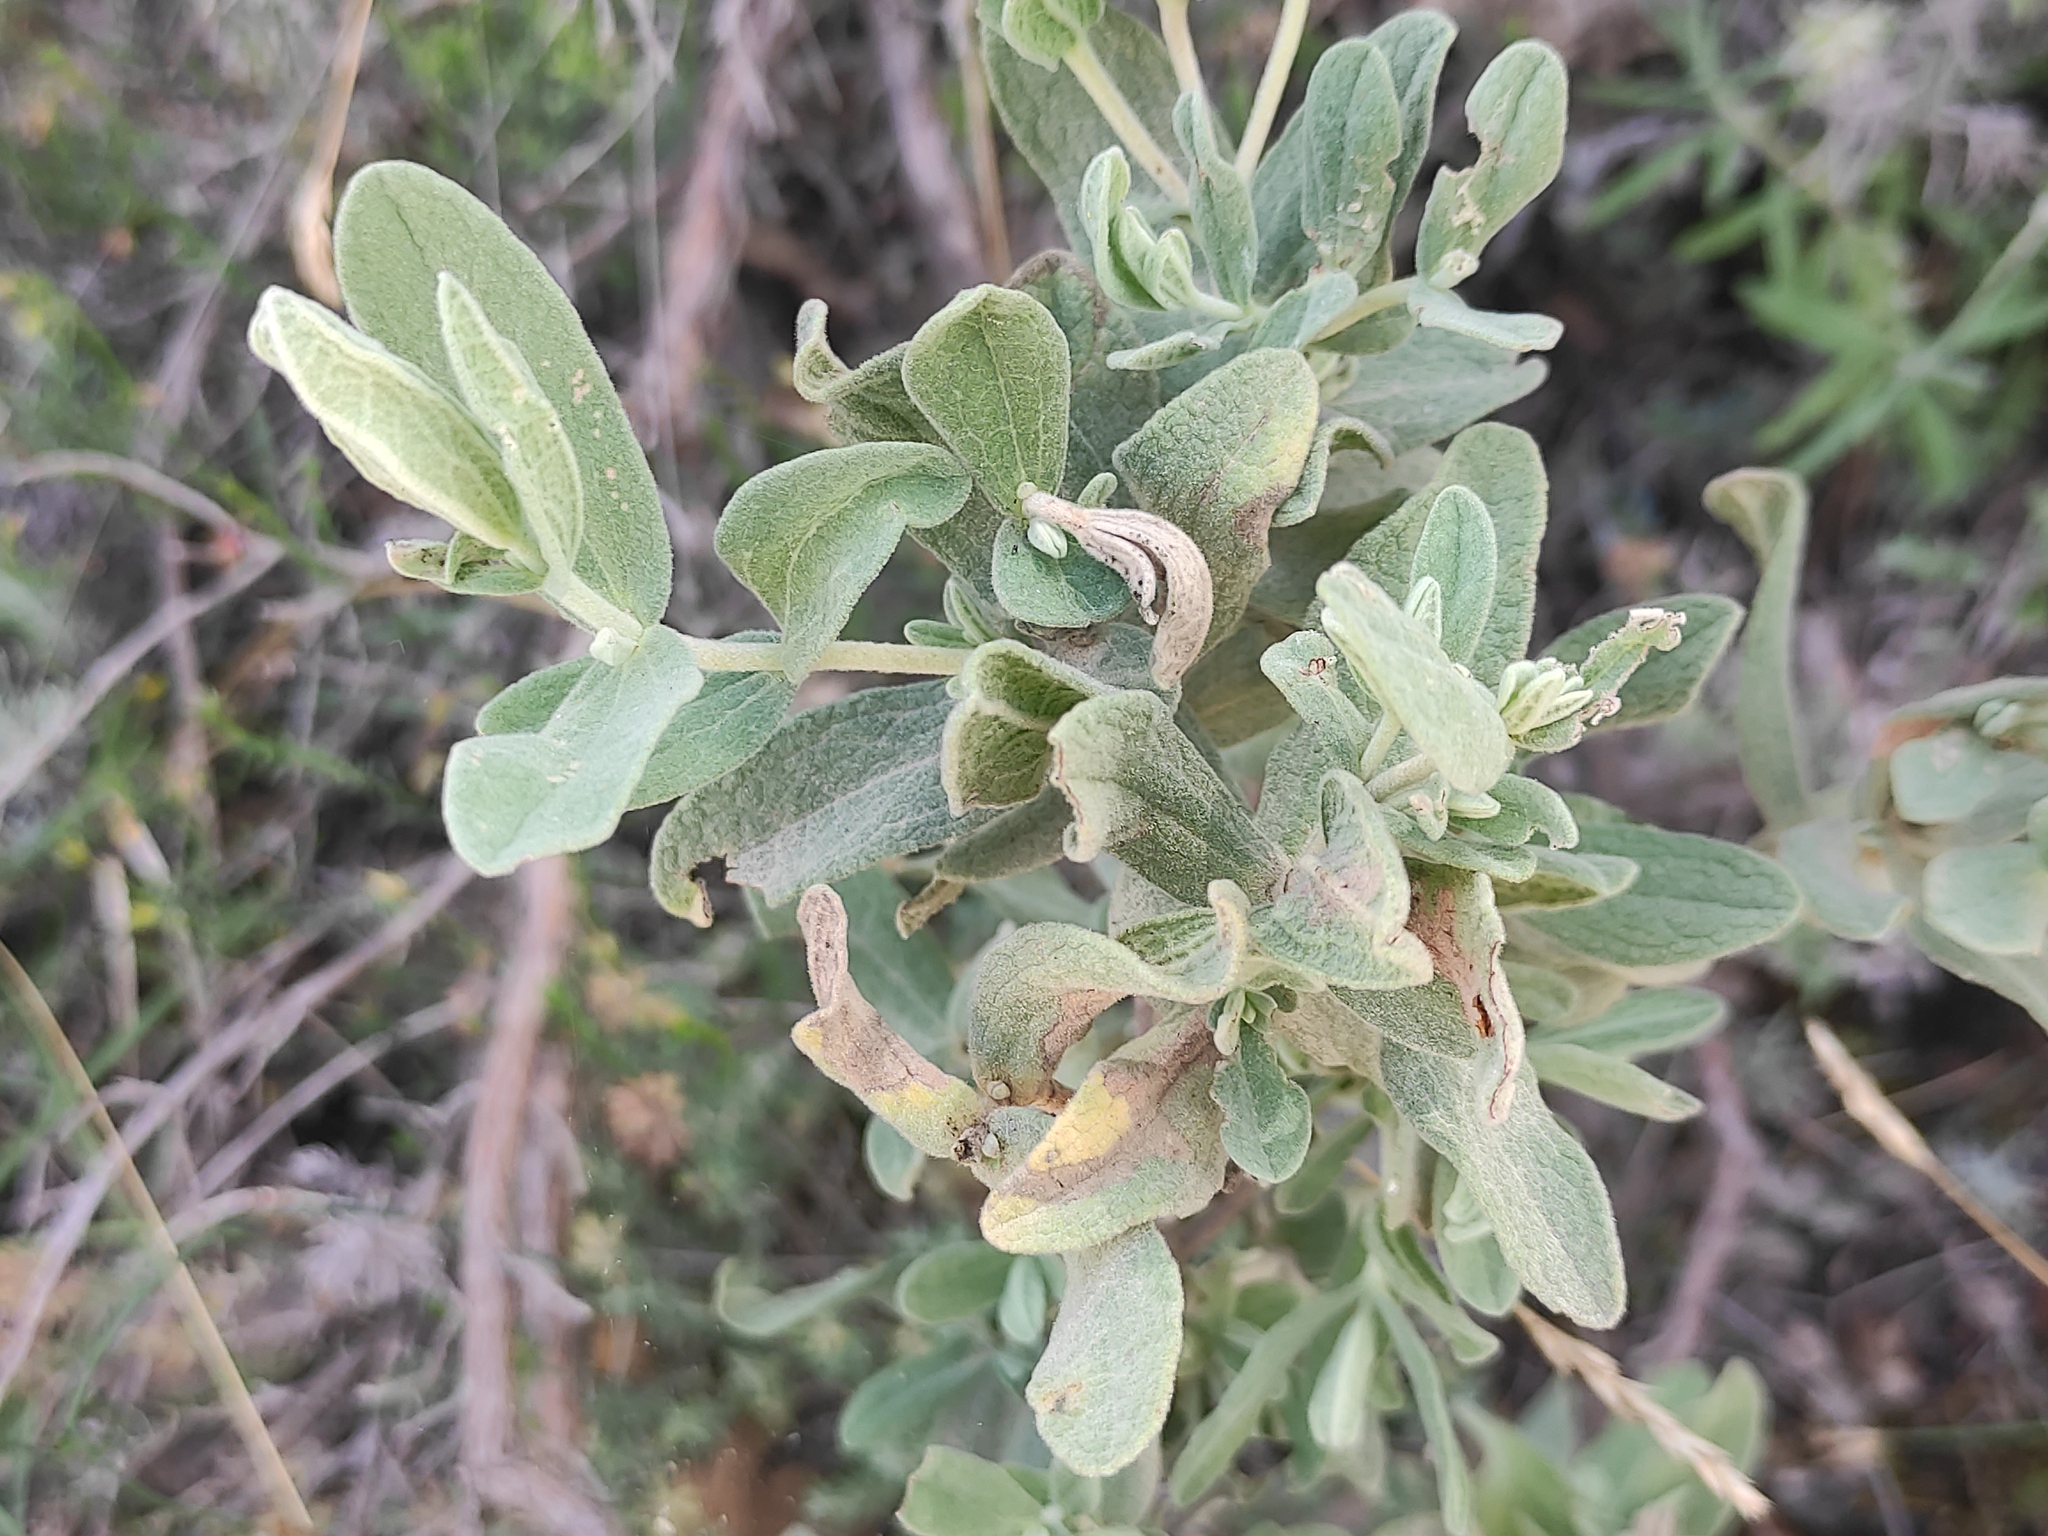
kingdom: Plantae
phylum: Tracheophyta
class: Magnoliopsida
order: Malvales
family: Cistaceae
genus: Cistus
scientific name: Cistus albidus
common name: White-leaf rock-rose
